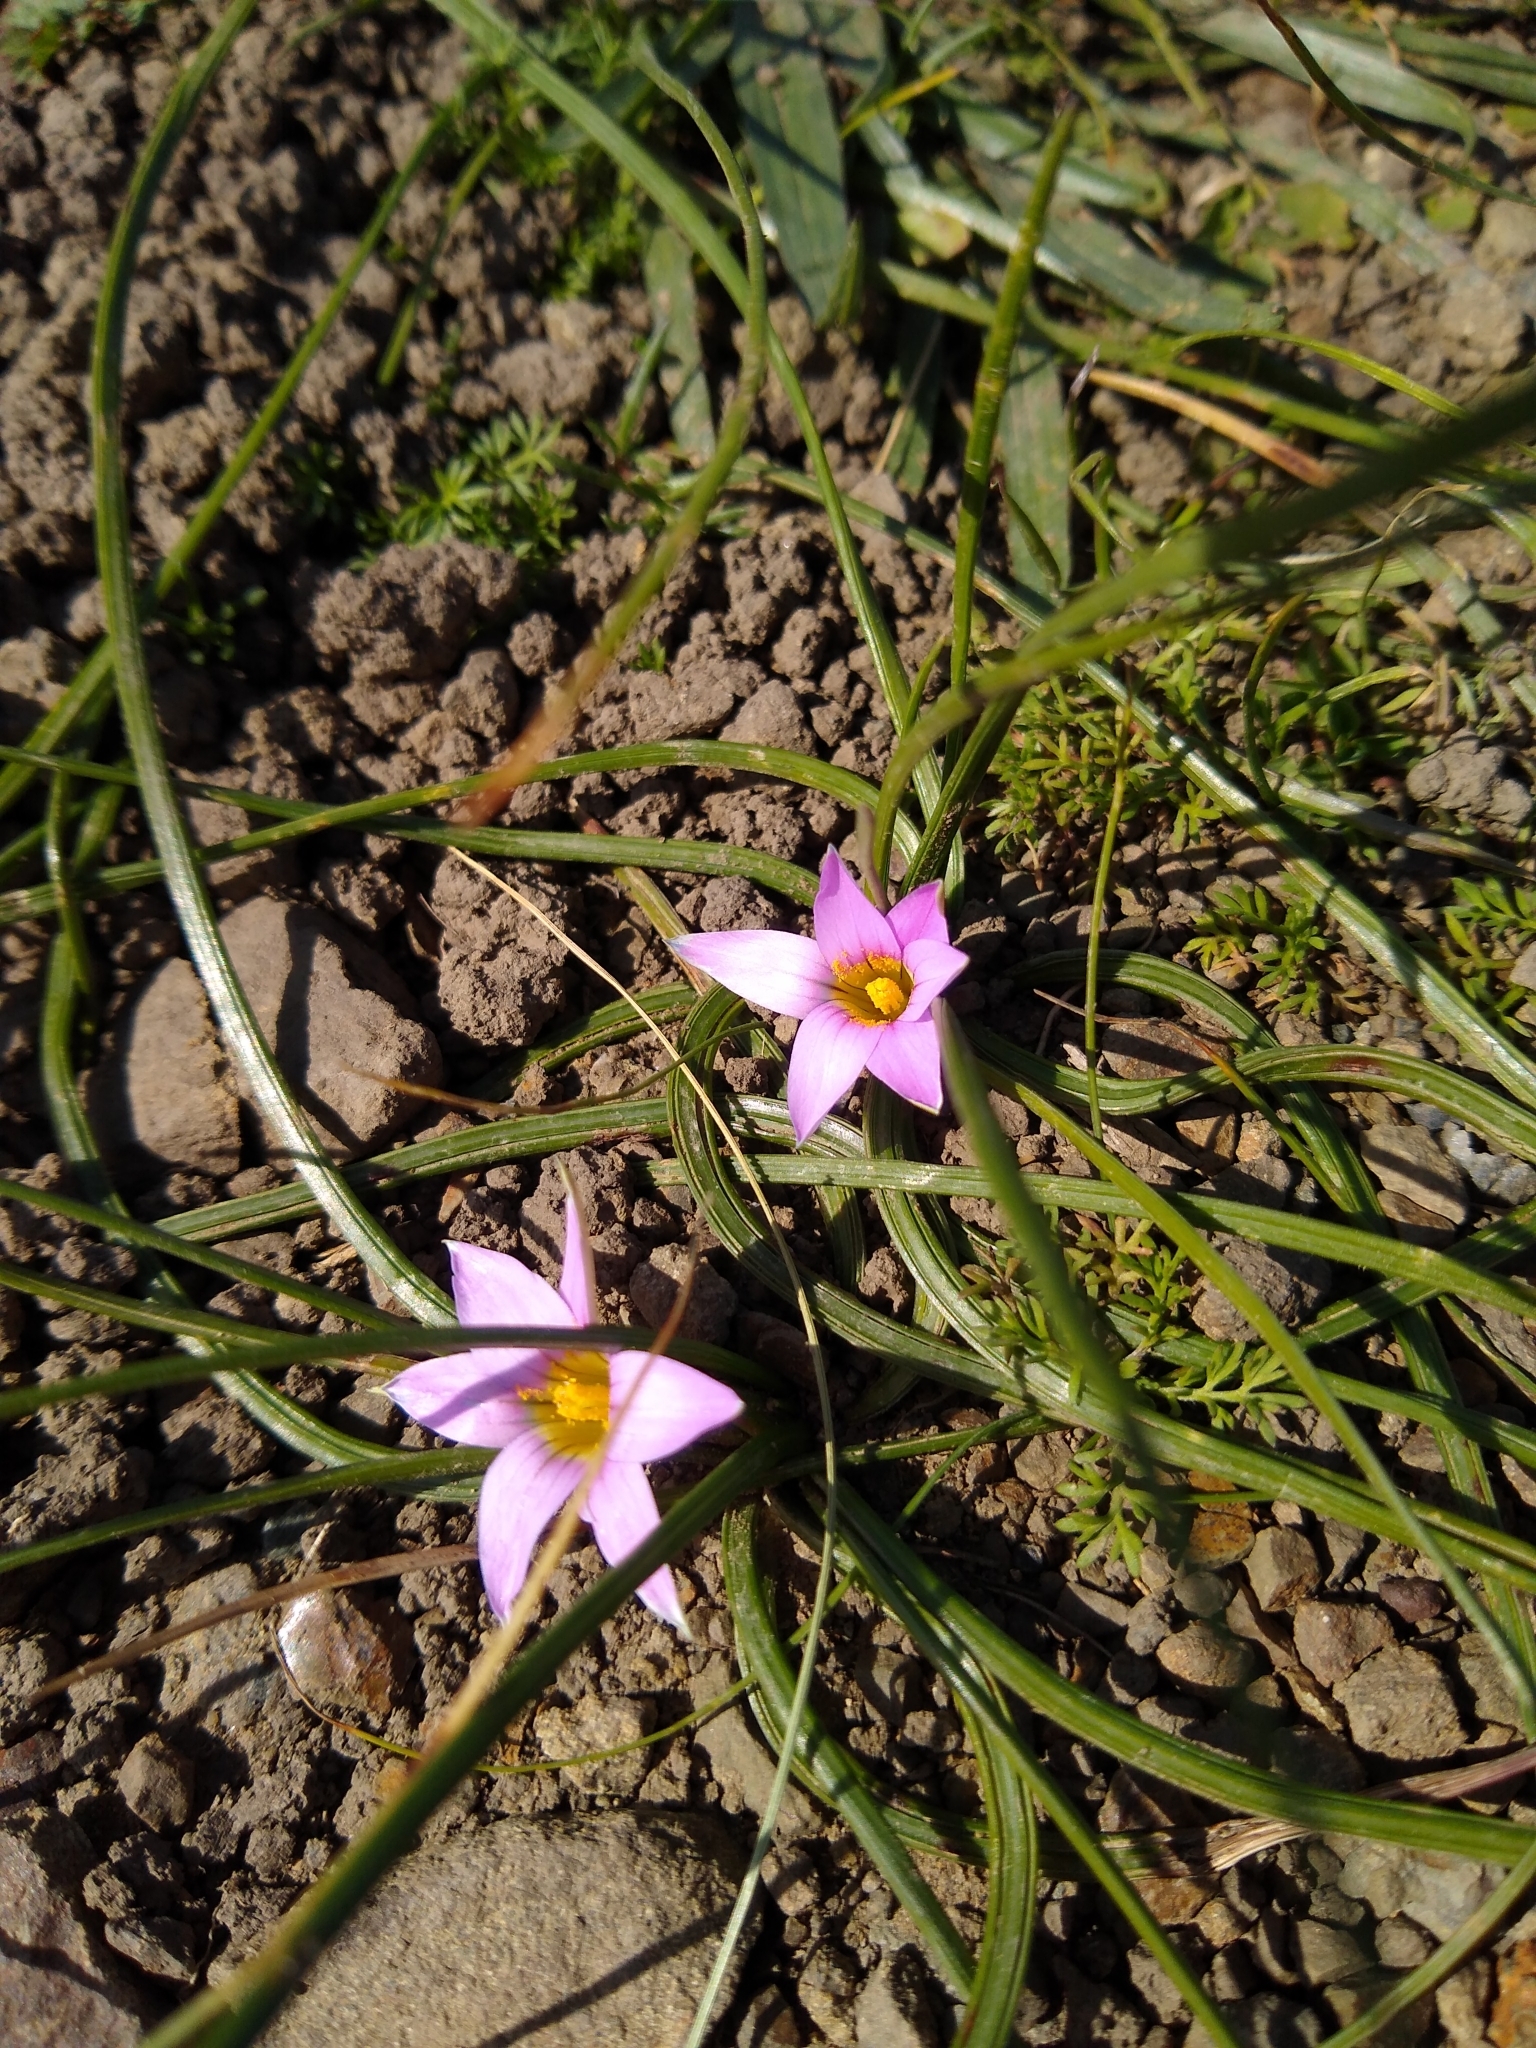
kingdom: Plantae
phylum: Tracheophyta
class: Liliopsida
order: Asparagales
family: Iridaceae
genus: Romulea
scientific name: Romulea rosea
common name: Oniongrass
